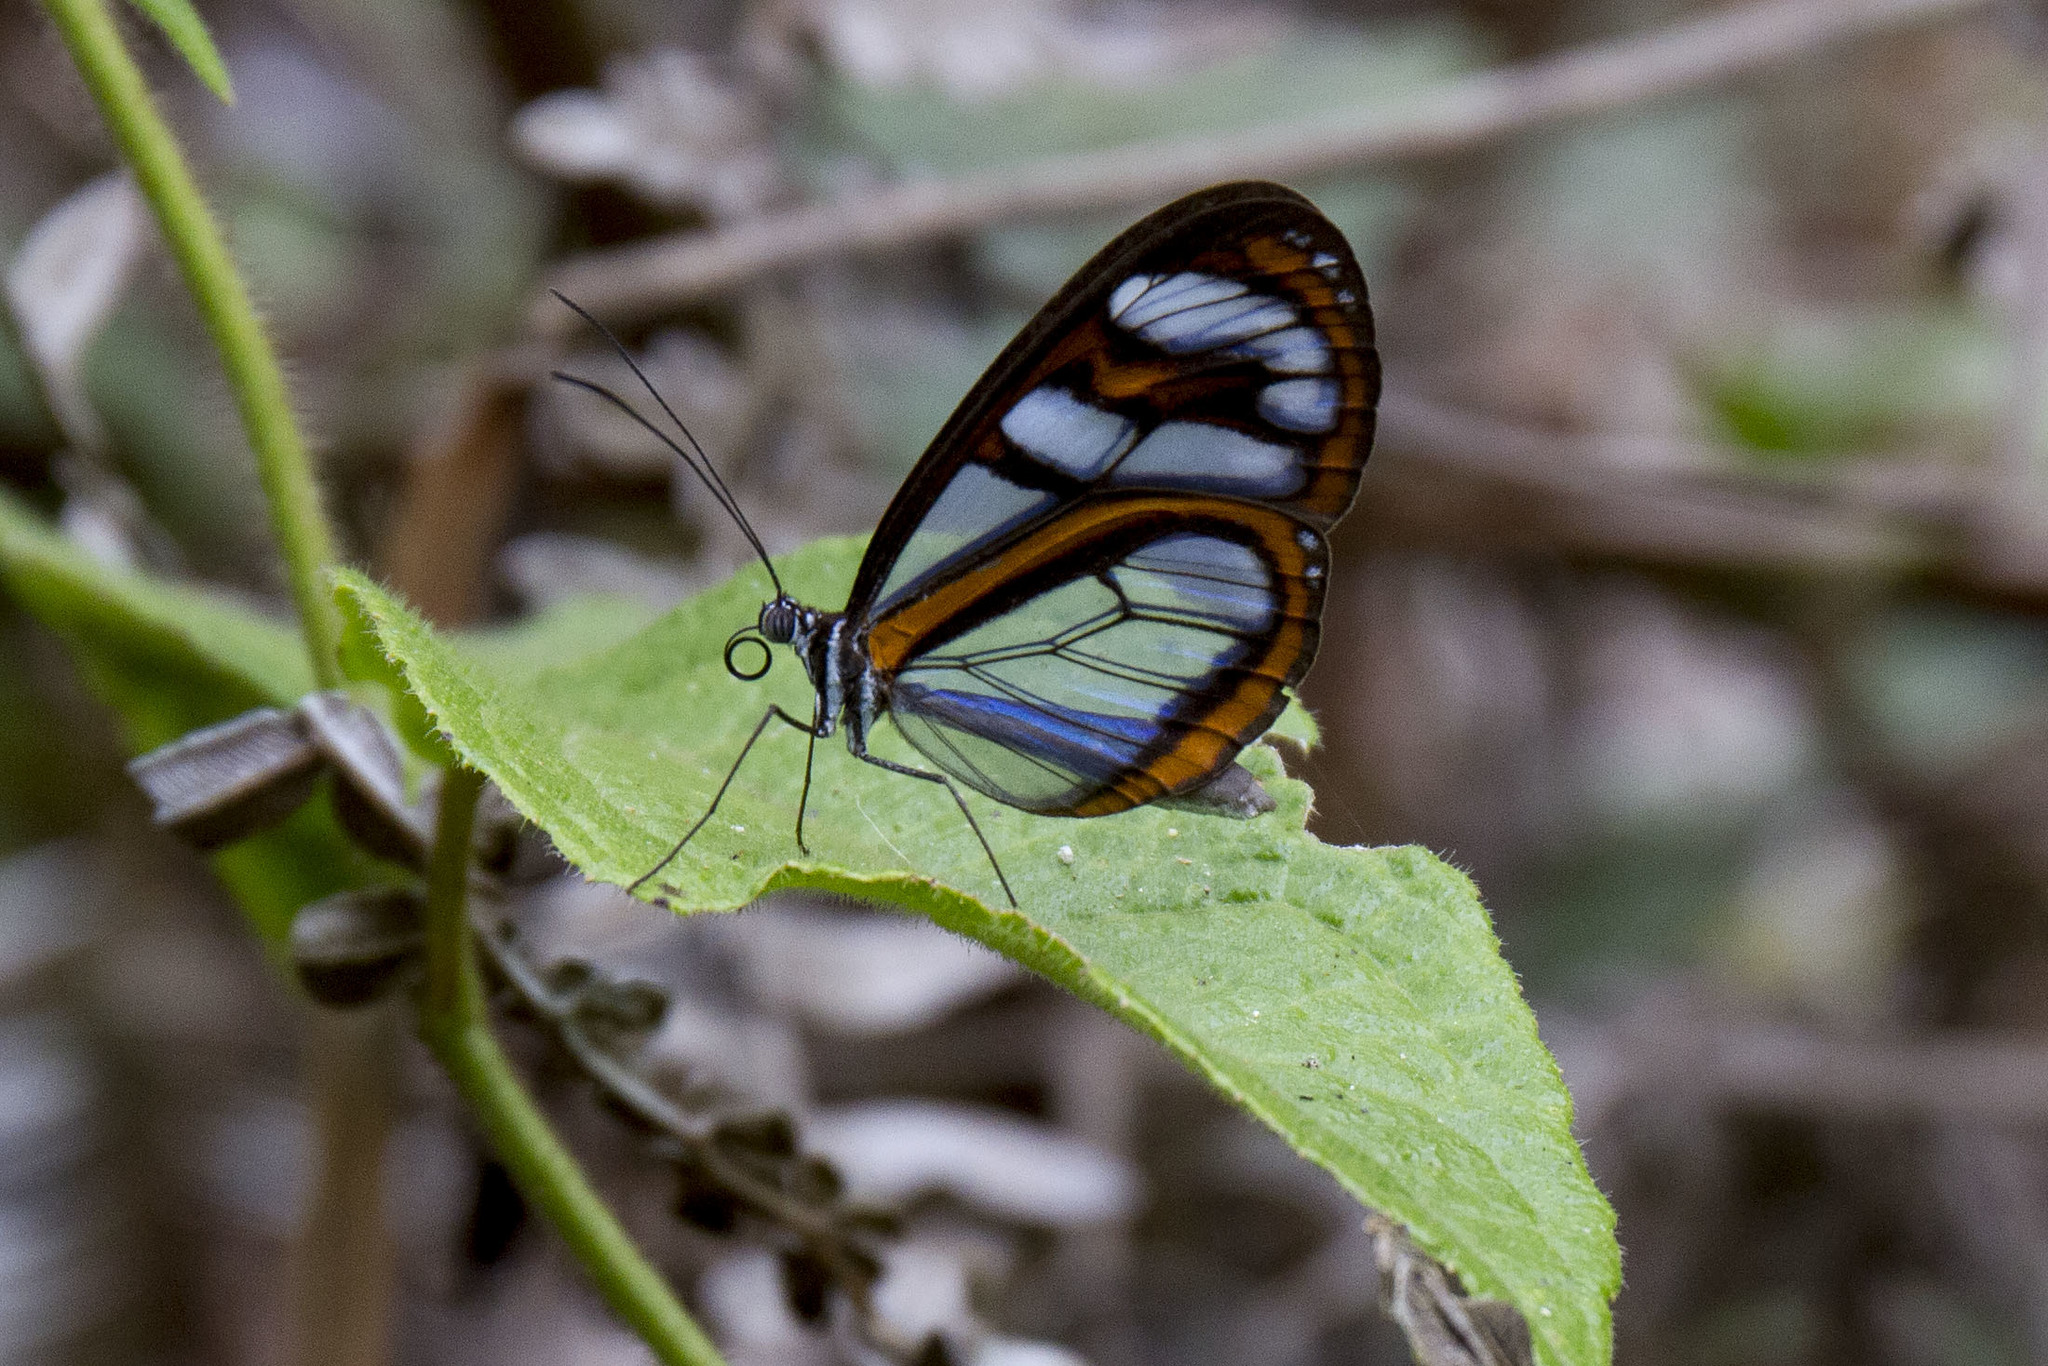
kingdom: Animalia
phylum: Arthropoda
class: Insecta
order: Lepidoptera
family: Nymphalidae
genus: Oleria
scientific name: Oleria astrea
